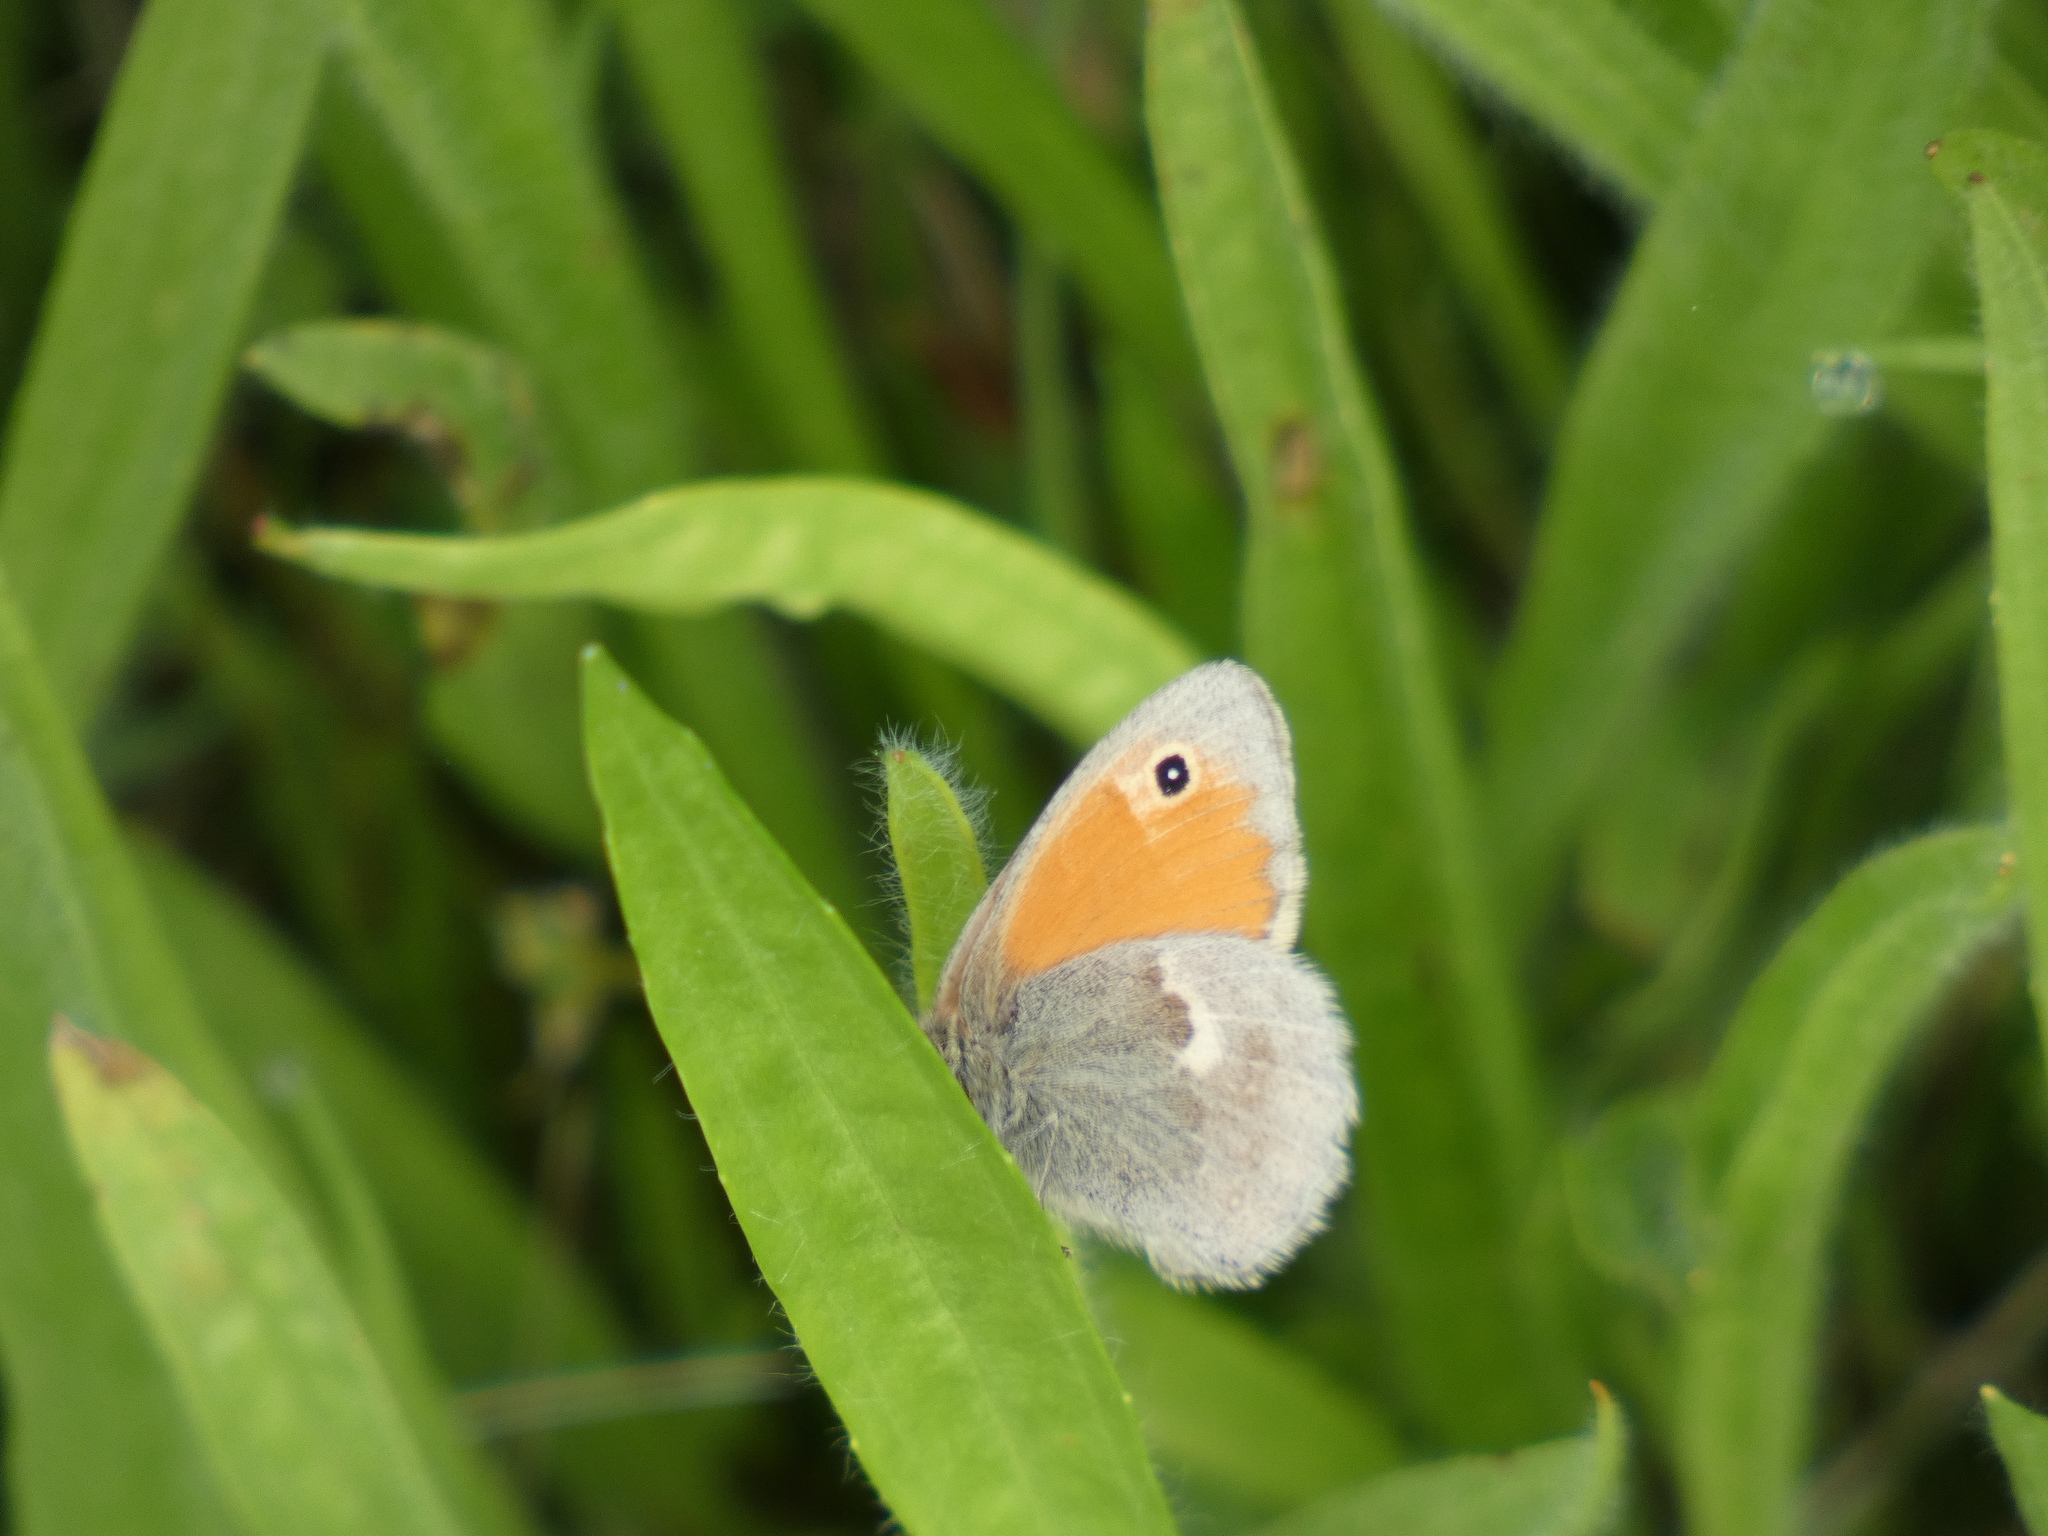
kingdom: Animalia
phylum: Arthropoda
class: Insecta
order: Lepidoptera
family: Nymphalidae
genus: Coenonympha
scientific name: Coenonympha pamphilus
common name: Small heath
